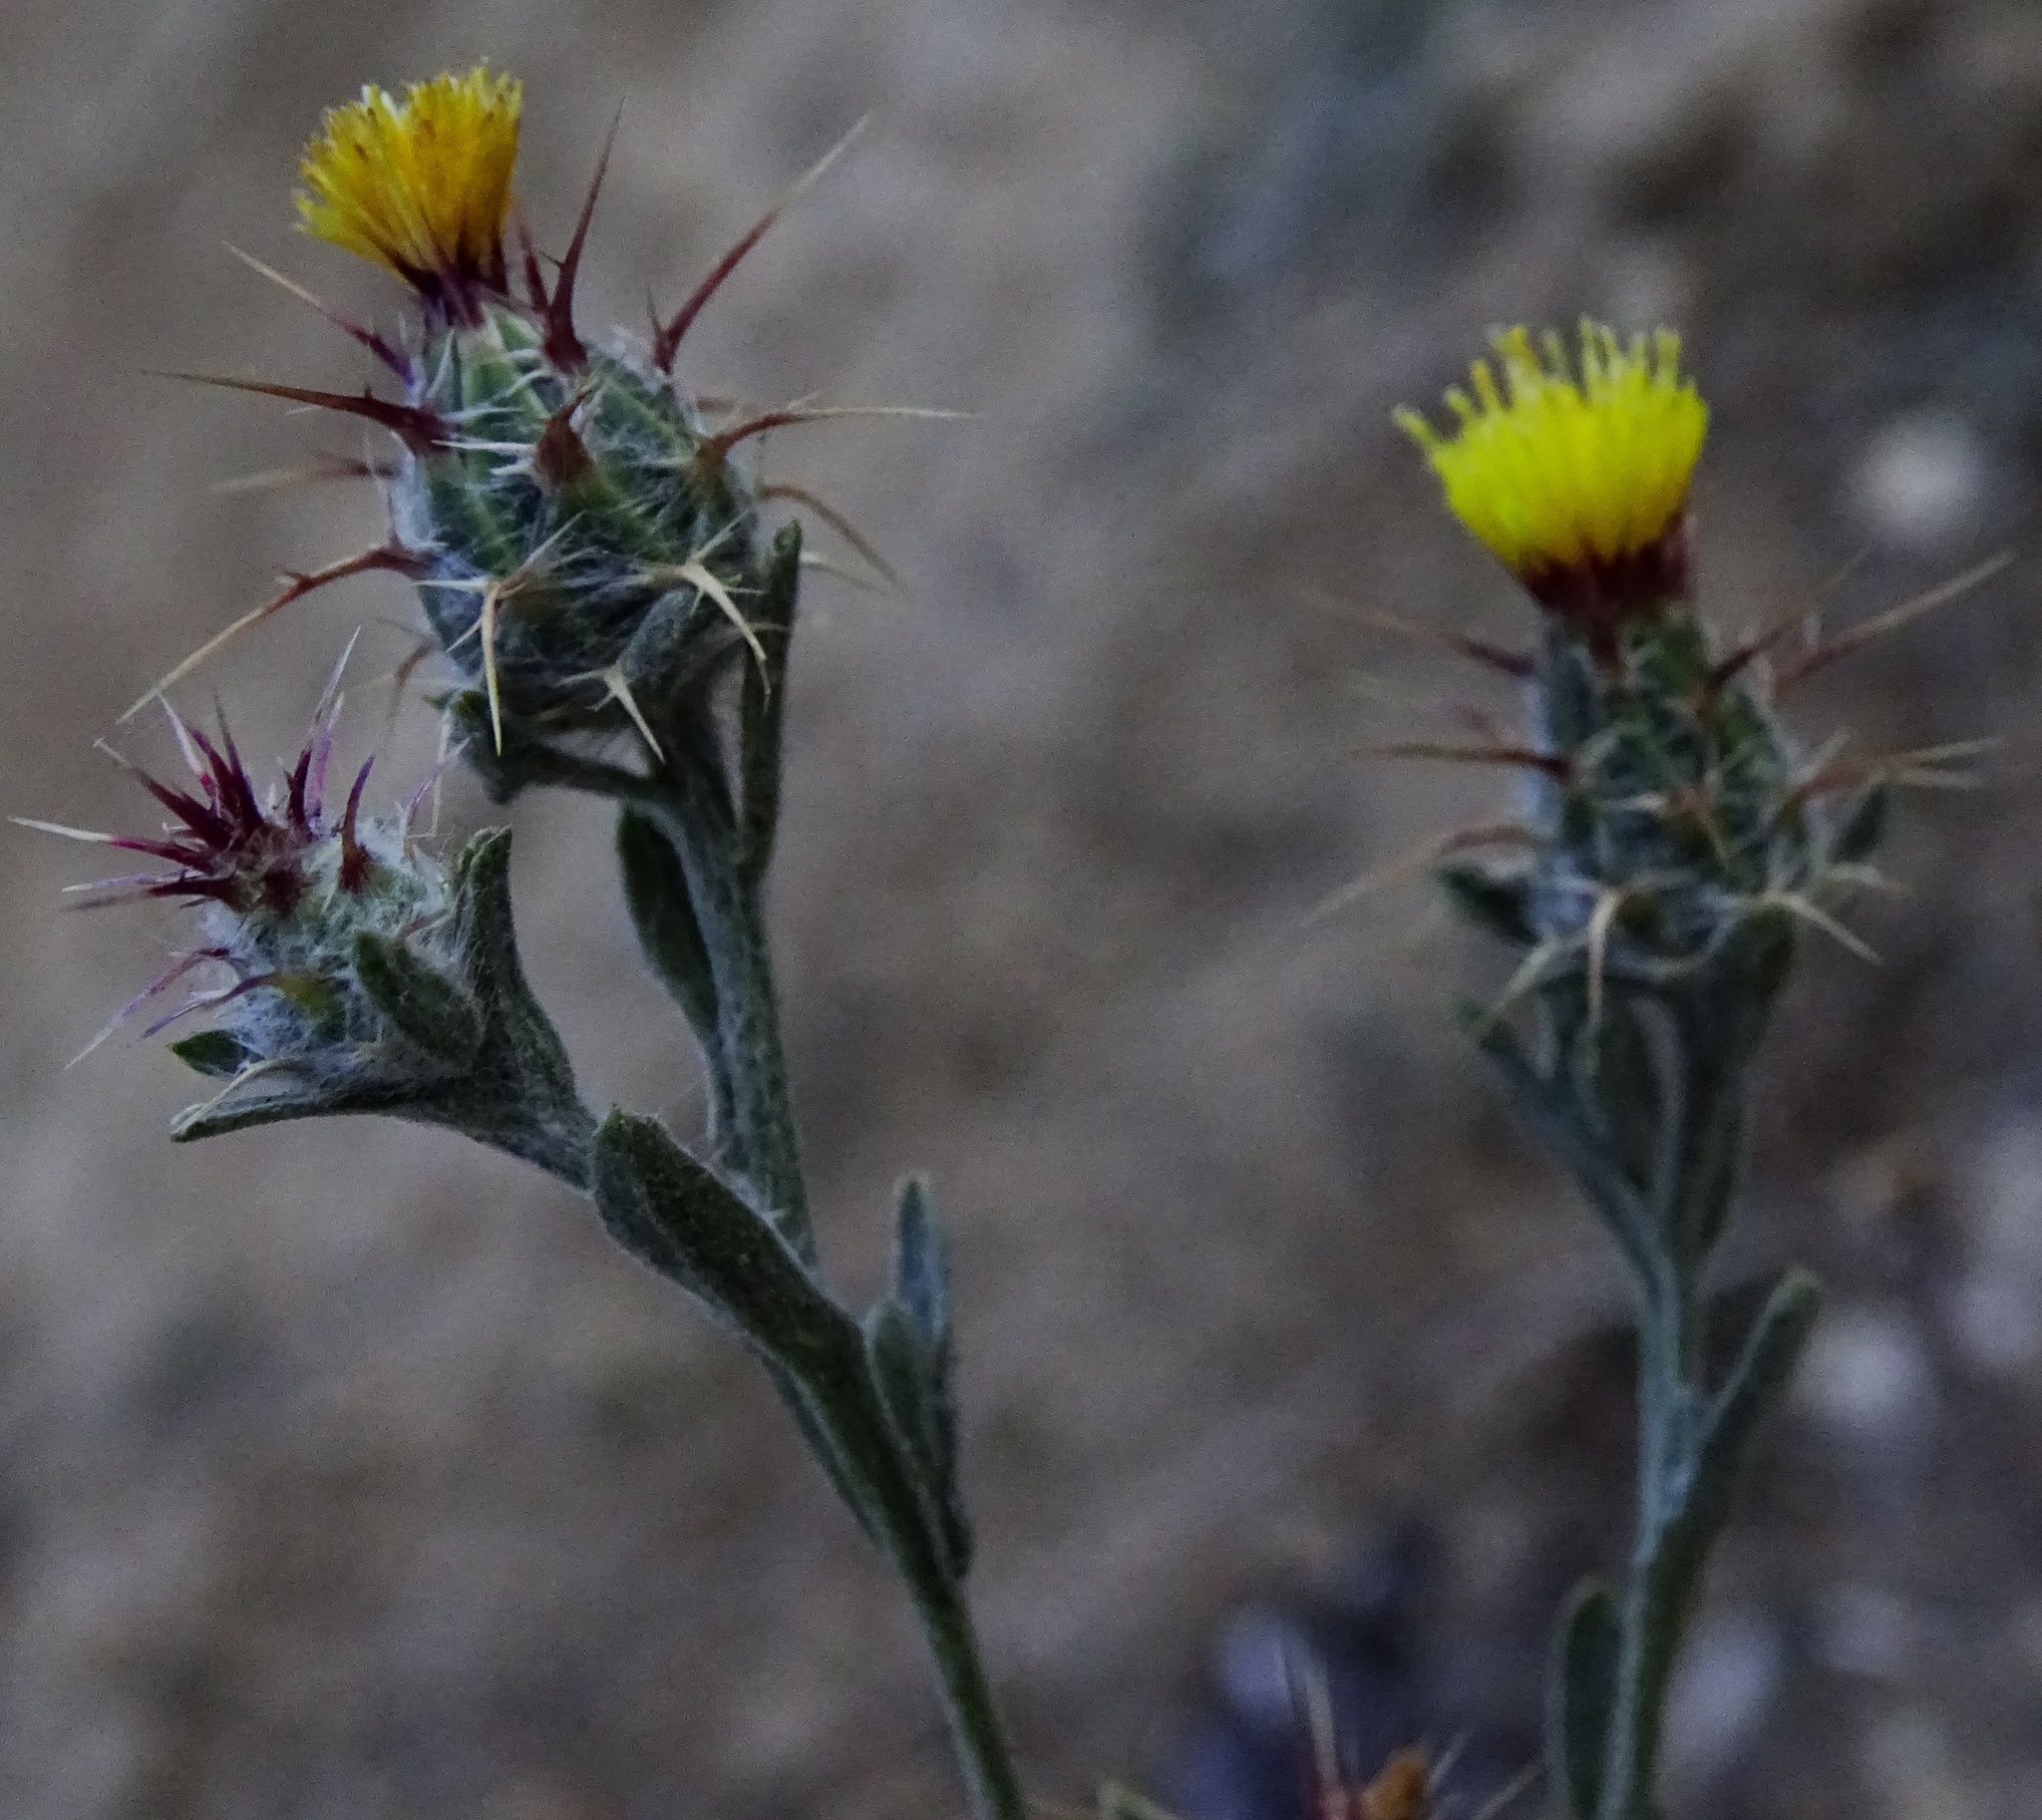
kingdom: Plantae
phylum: Tracheophyta
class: Magnoliopsida
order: Asterales
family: Asteraceae
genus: Centaurea
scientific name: Centaurea melitensis
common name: Maltese star-thistle
